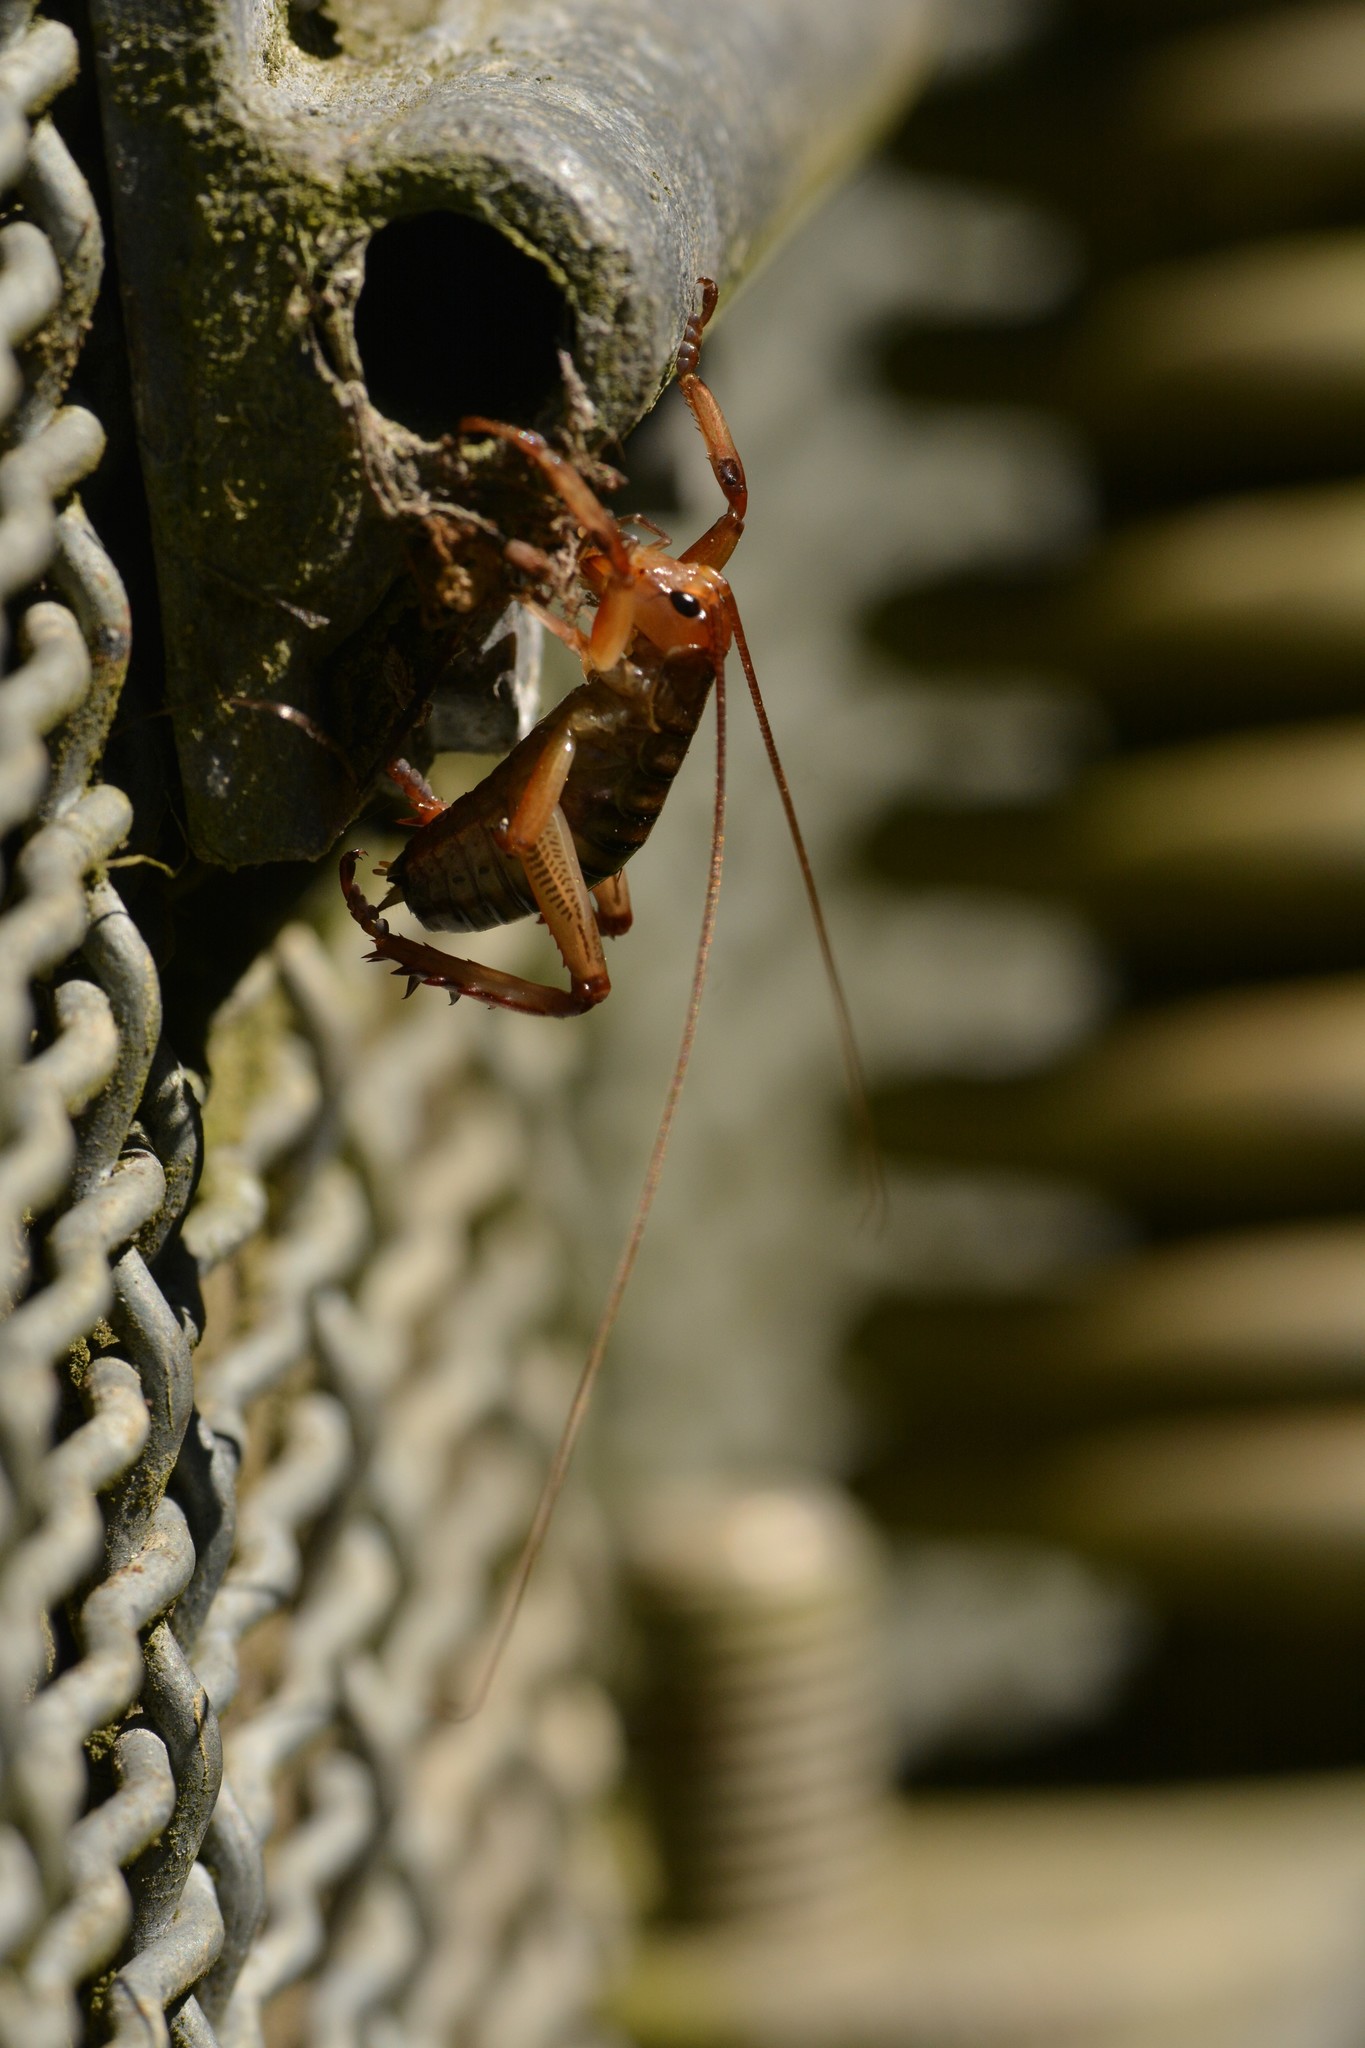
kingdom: Animalia
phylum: Arthropoda
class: Insecta
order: Orthoptera
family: Anostostomatidae
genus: Hemideina
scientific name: Hemideina crassidens
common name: Wellington tree weta
